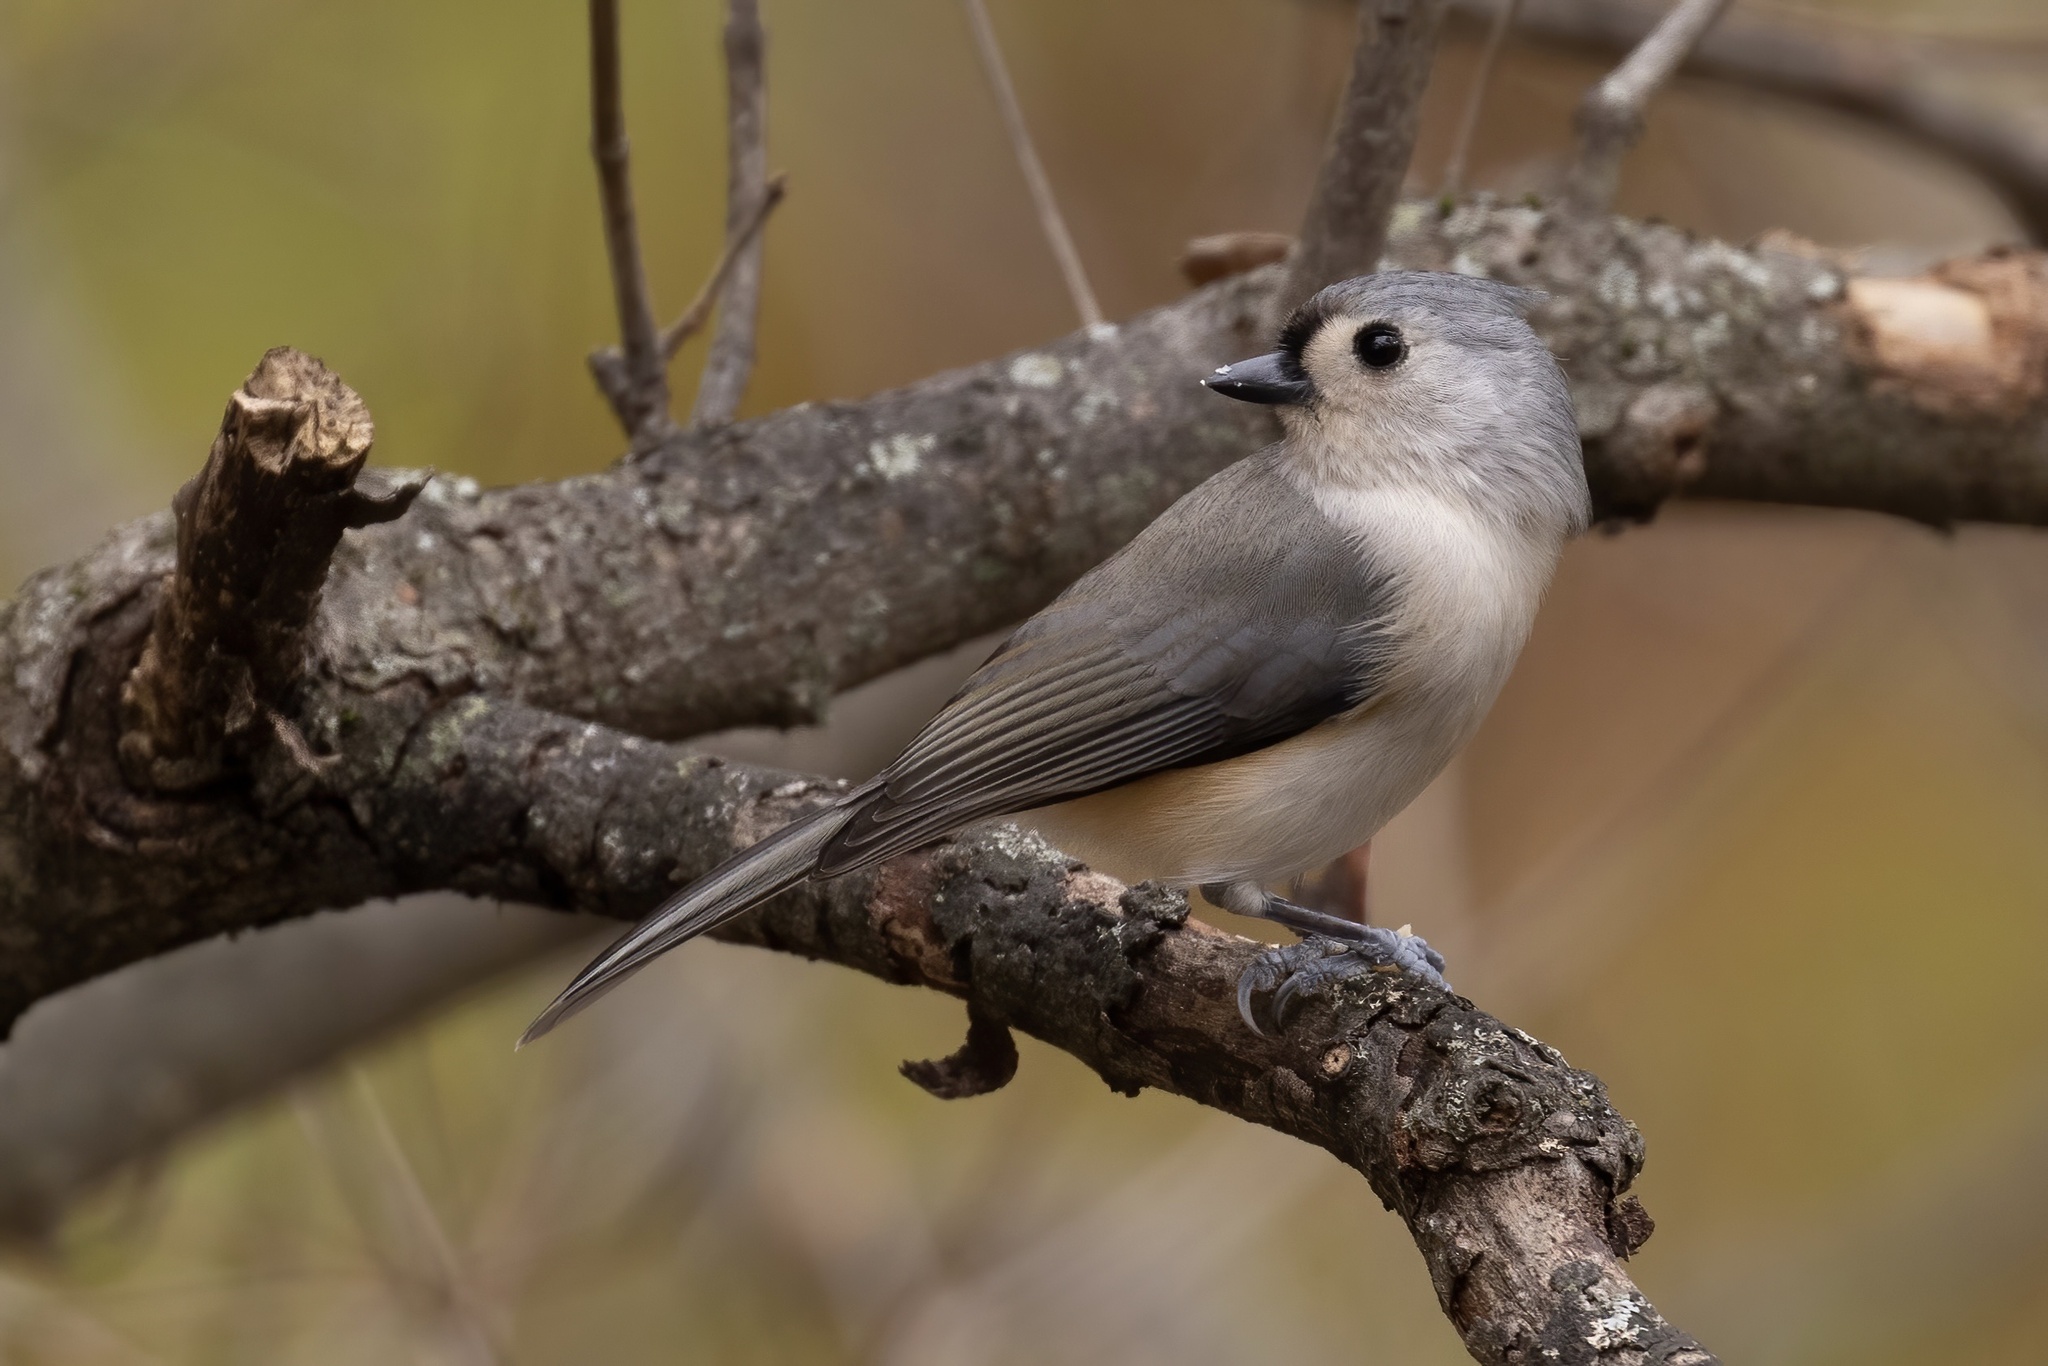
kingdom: Animalia
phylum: Chordata
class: Aves
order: Passeriformes
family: Paridae
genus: Baeolophus
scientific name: Baeolophus bicolor
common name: Tufted titmouse
